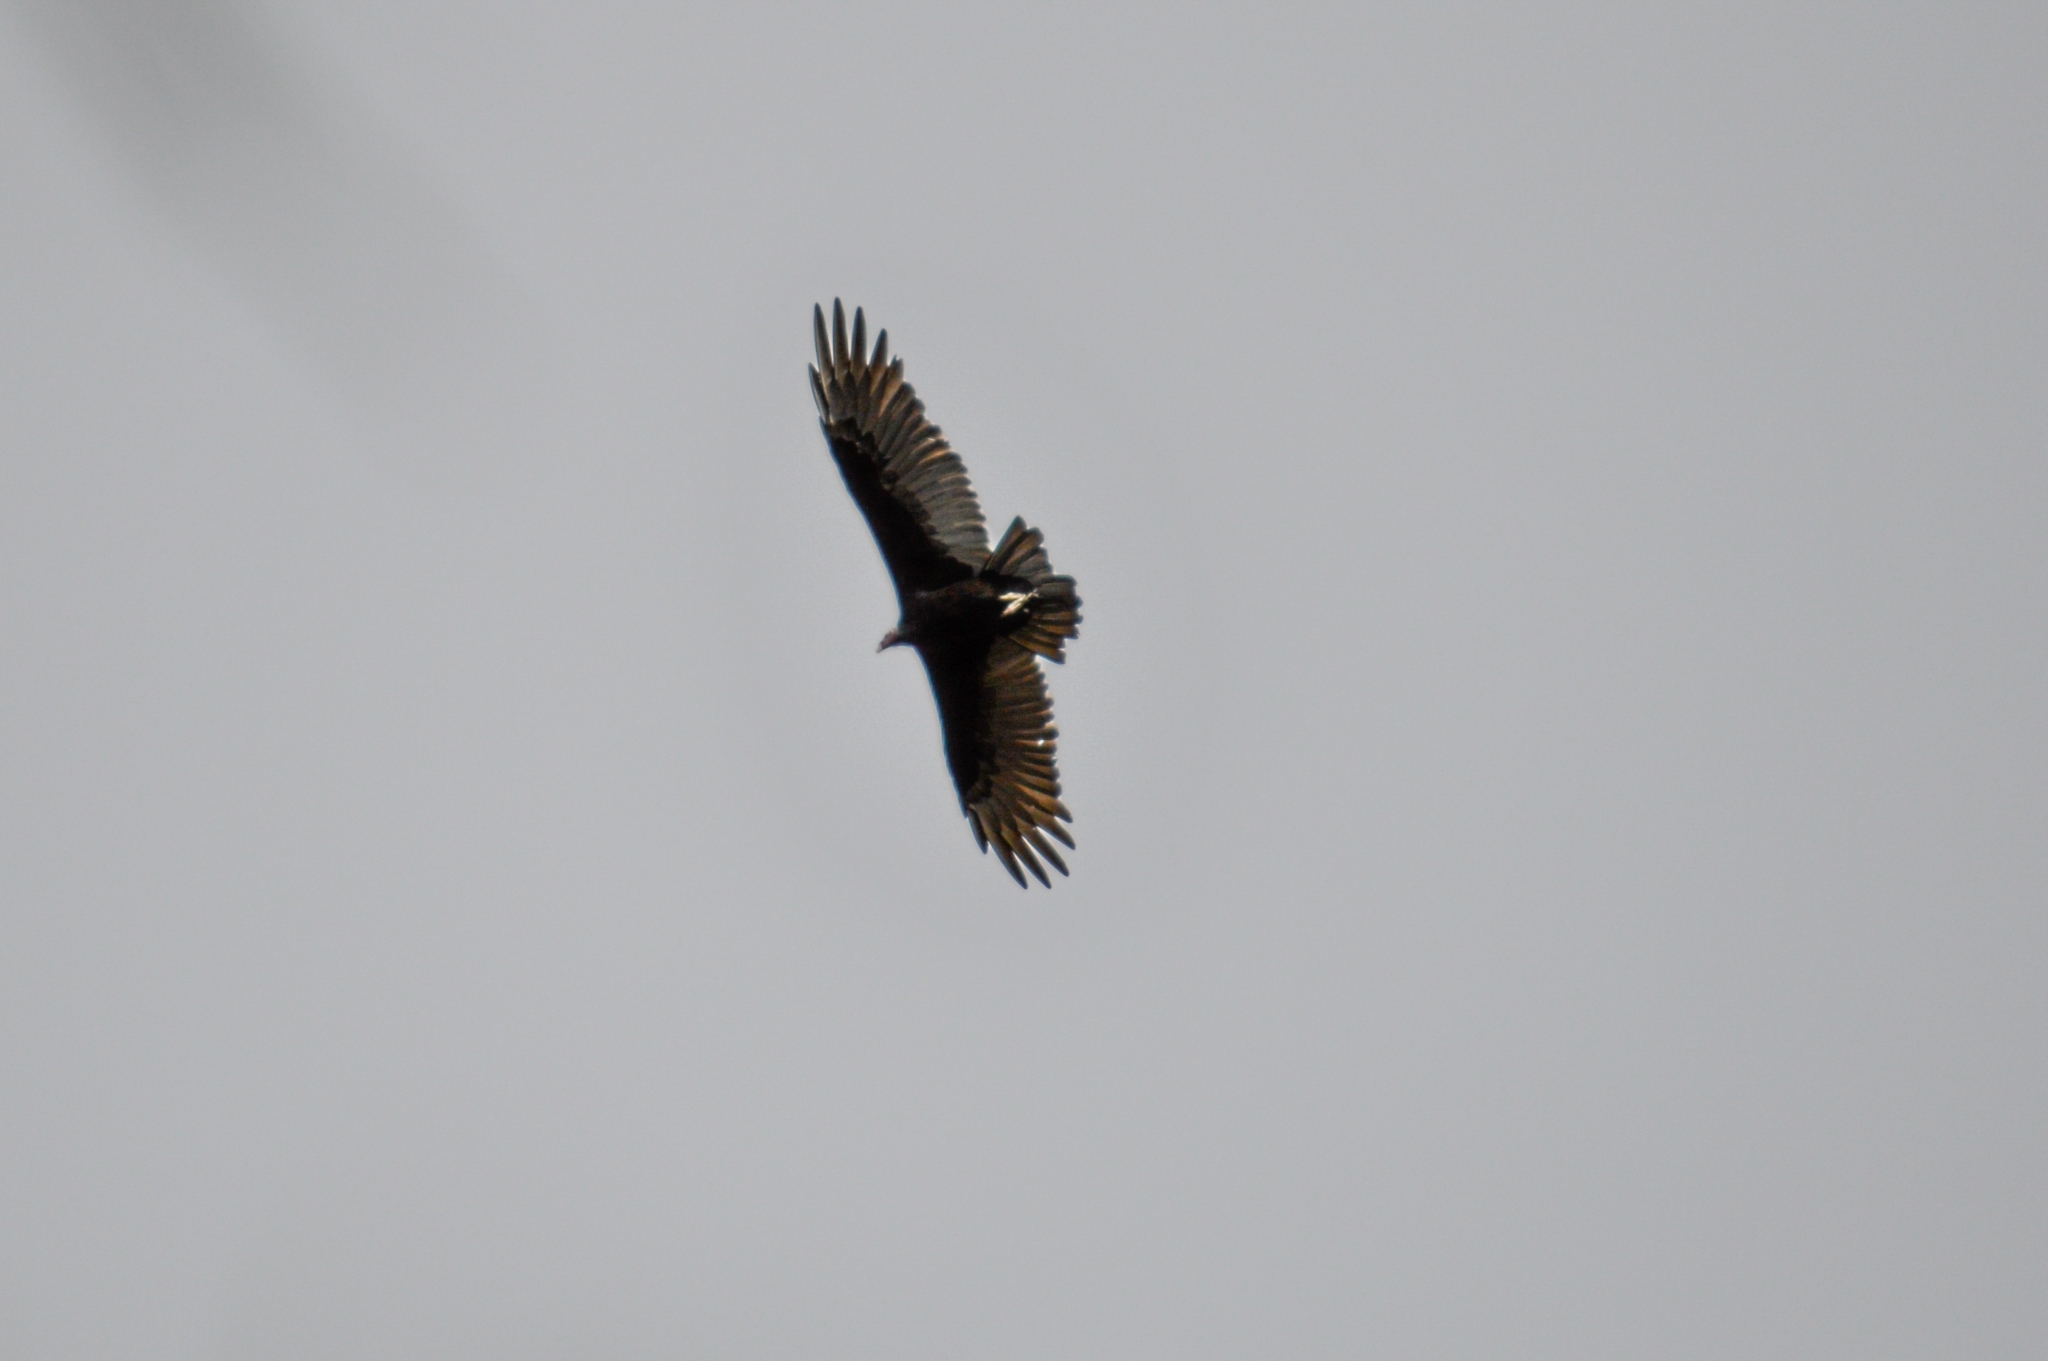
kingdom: Animalia
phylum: Chordata
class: Aves
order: Accipitriformes
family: Cathartidae
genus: Cathartes
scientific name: Cathartes aura
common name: Turkey vulture
